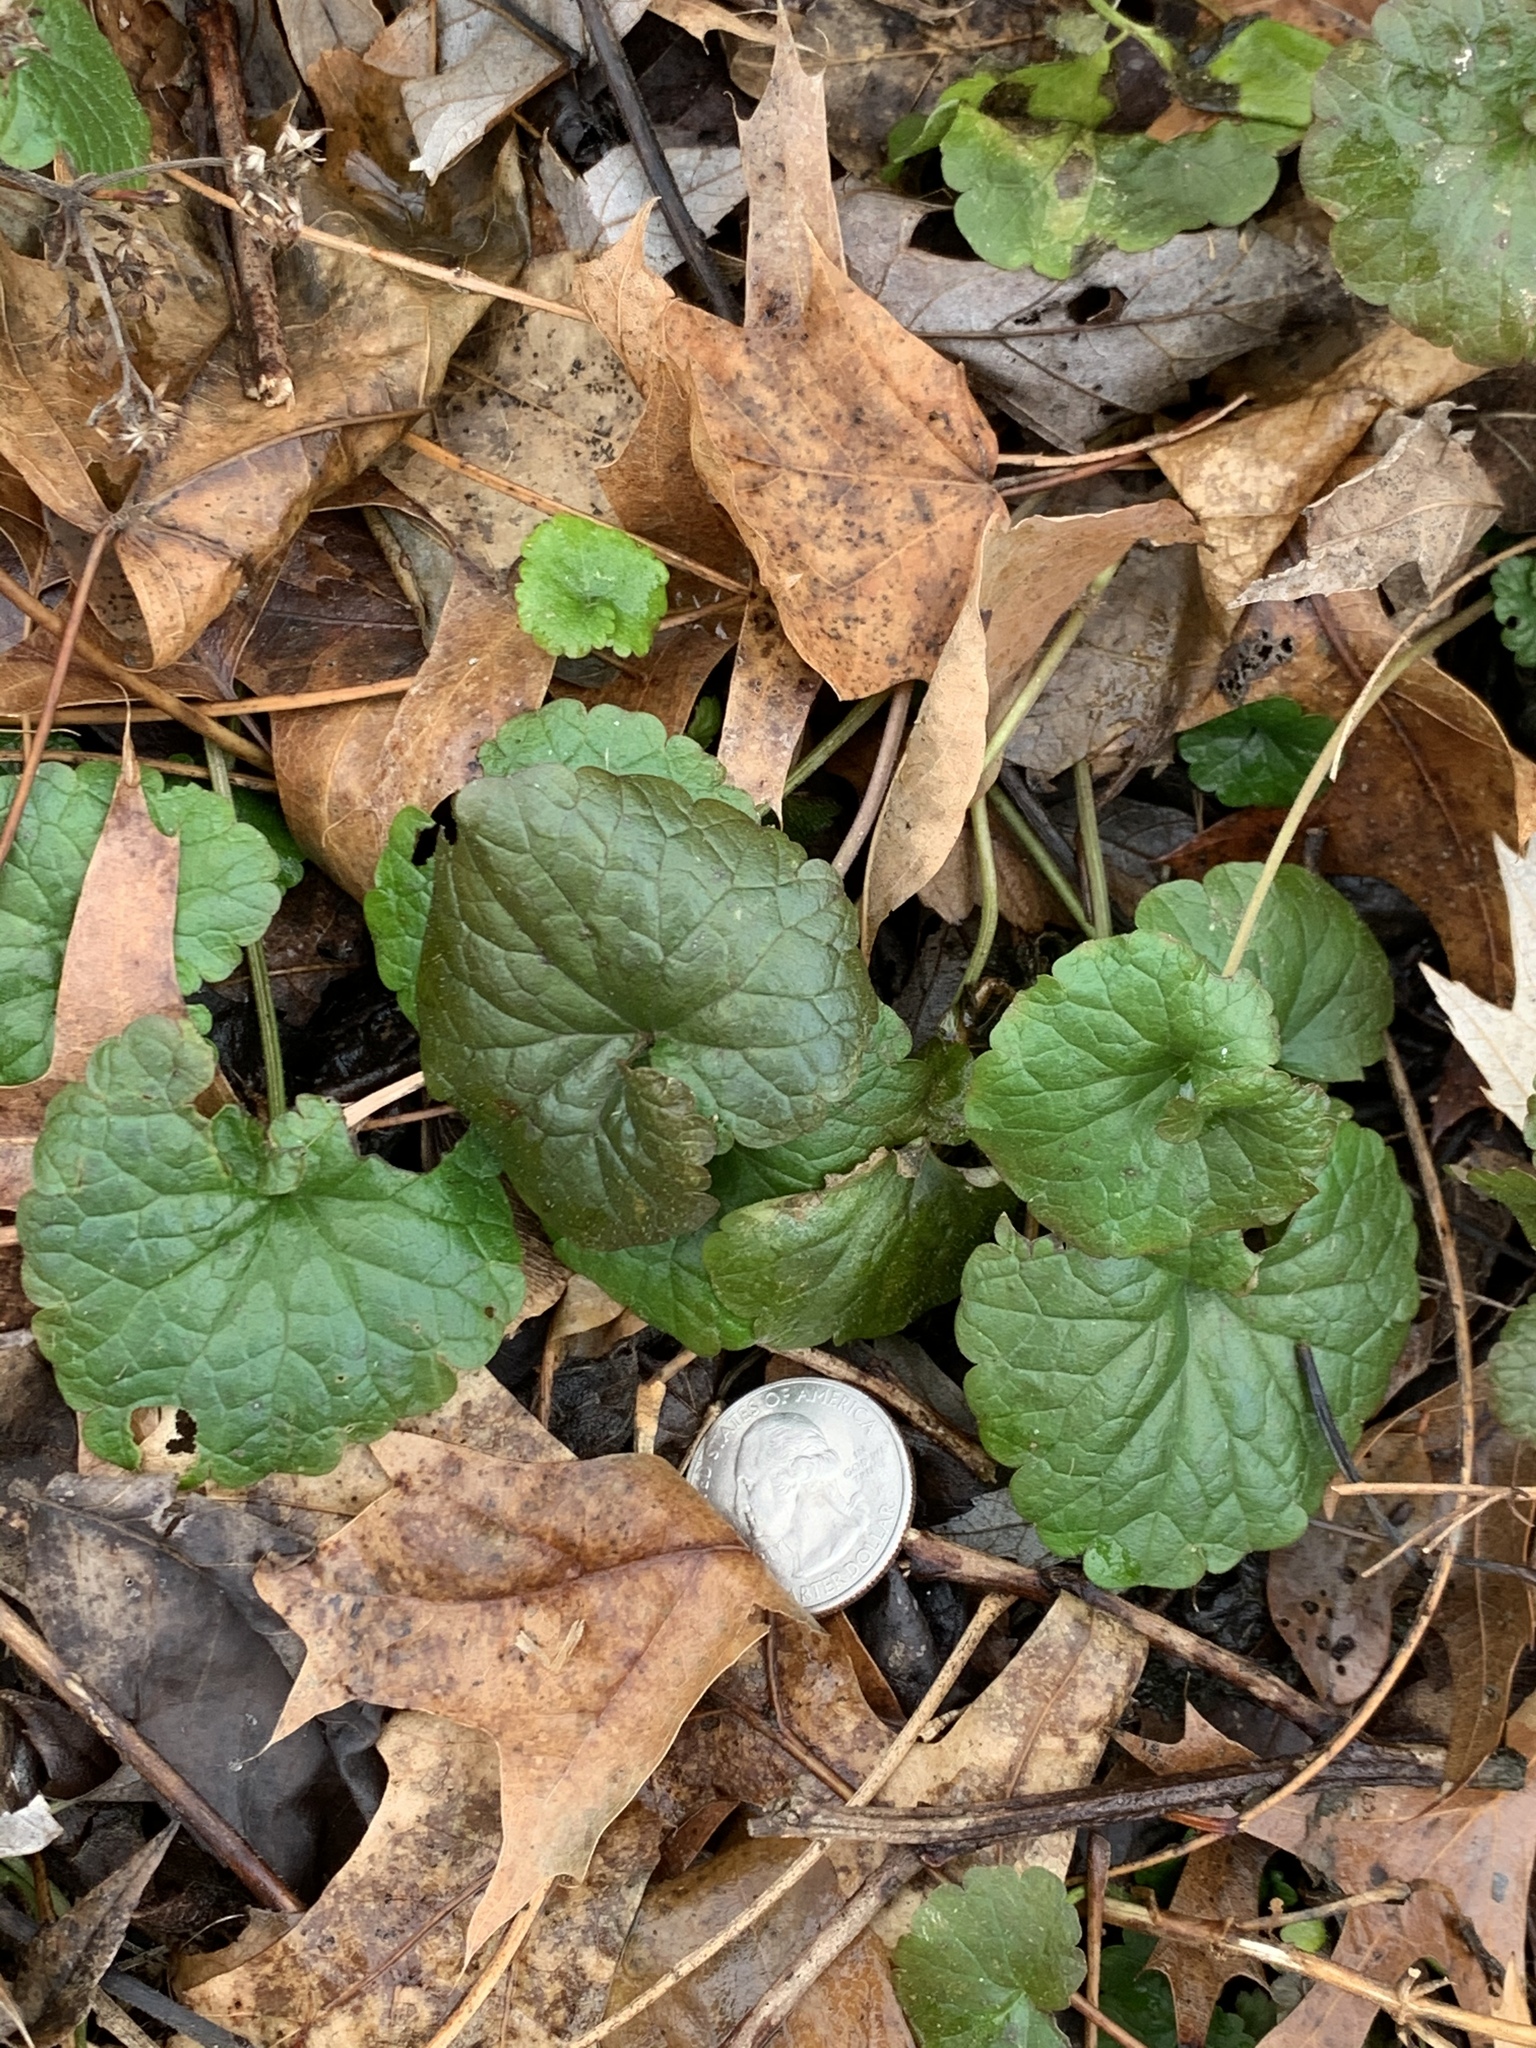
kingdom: Plantae
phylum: Tracheophyta
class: Magnoliopsida
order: Lamiales
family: Lamiaceae
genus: Glechoma
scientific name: Glechoma hederacea
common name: Ground ivy
